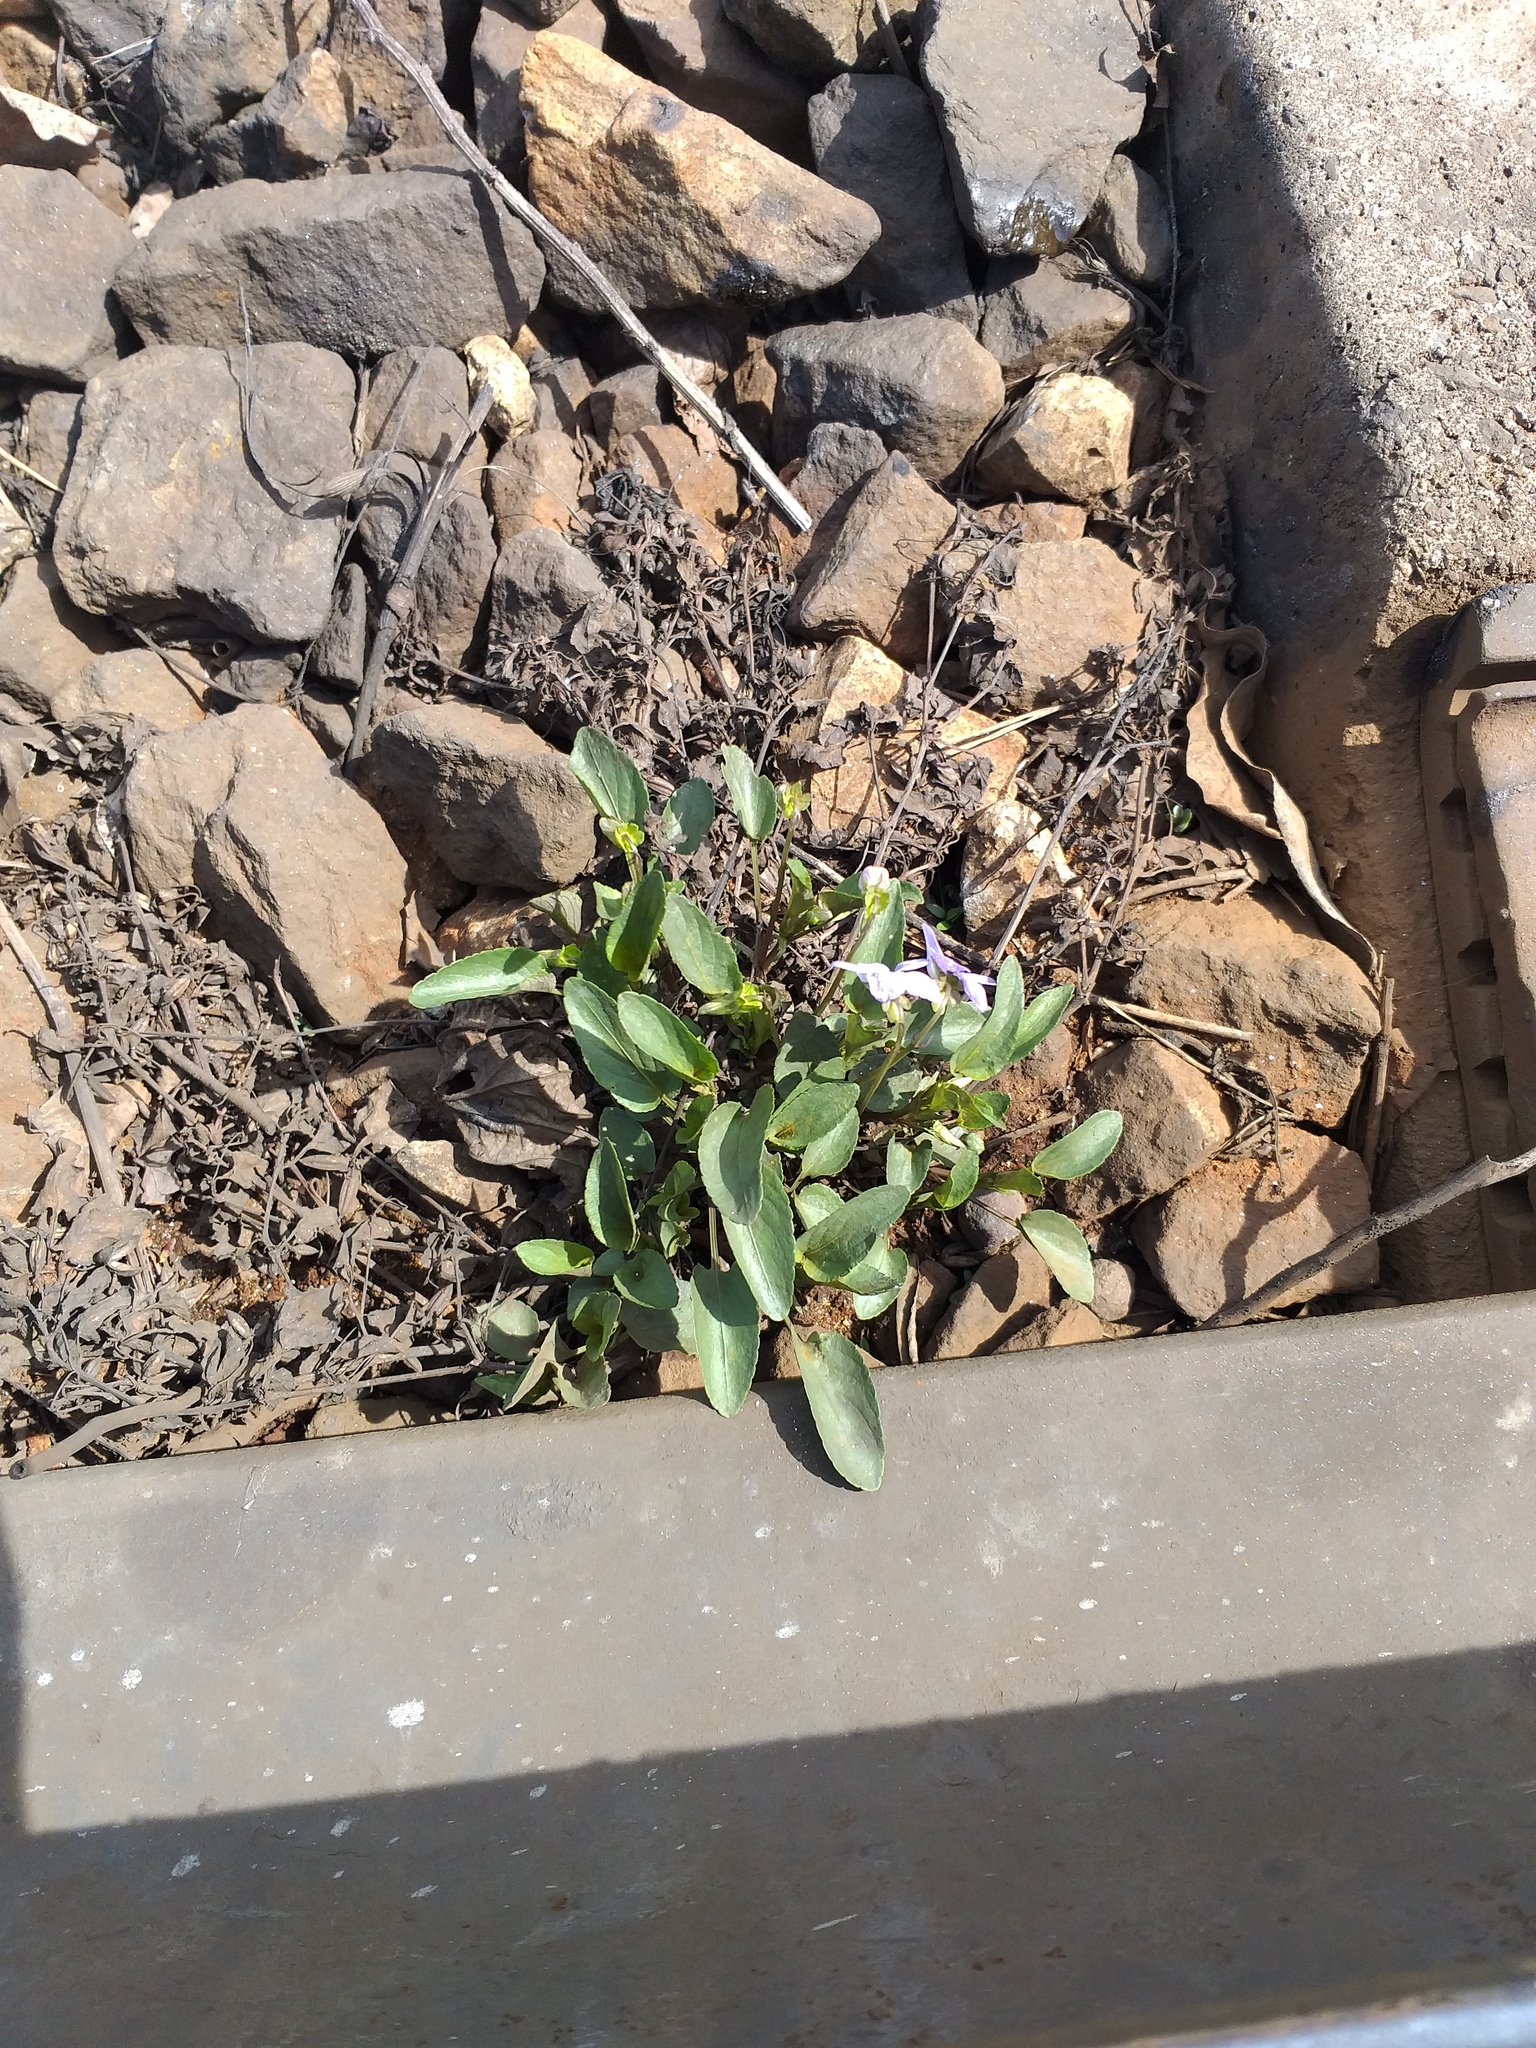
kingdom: Plantae
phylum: Tracheophyta
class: Magnoliopsida
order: Malpighiales
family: Violaceae
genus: Viola
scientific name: Viola canina
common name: Heath dog-violet
